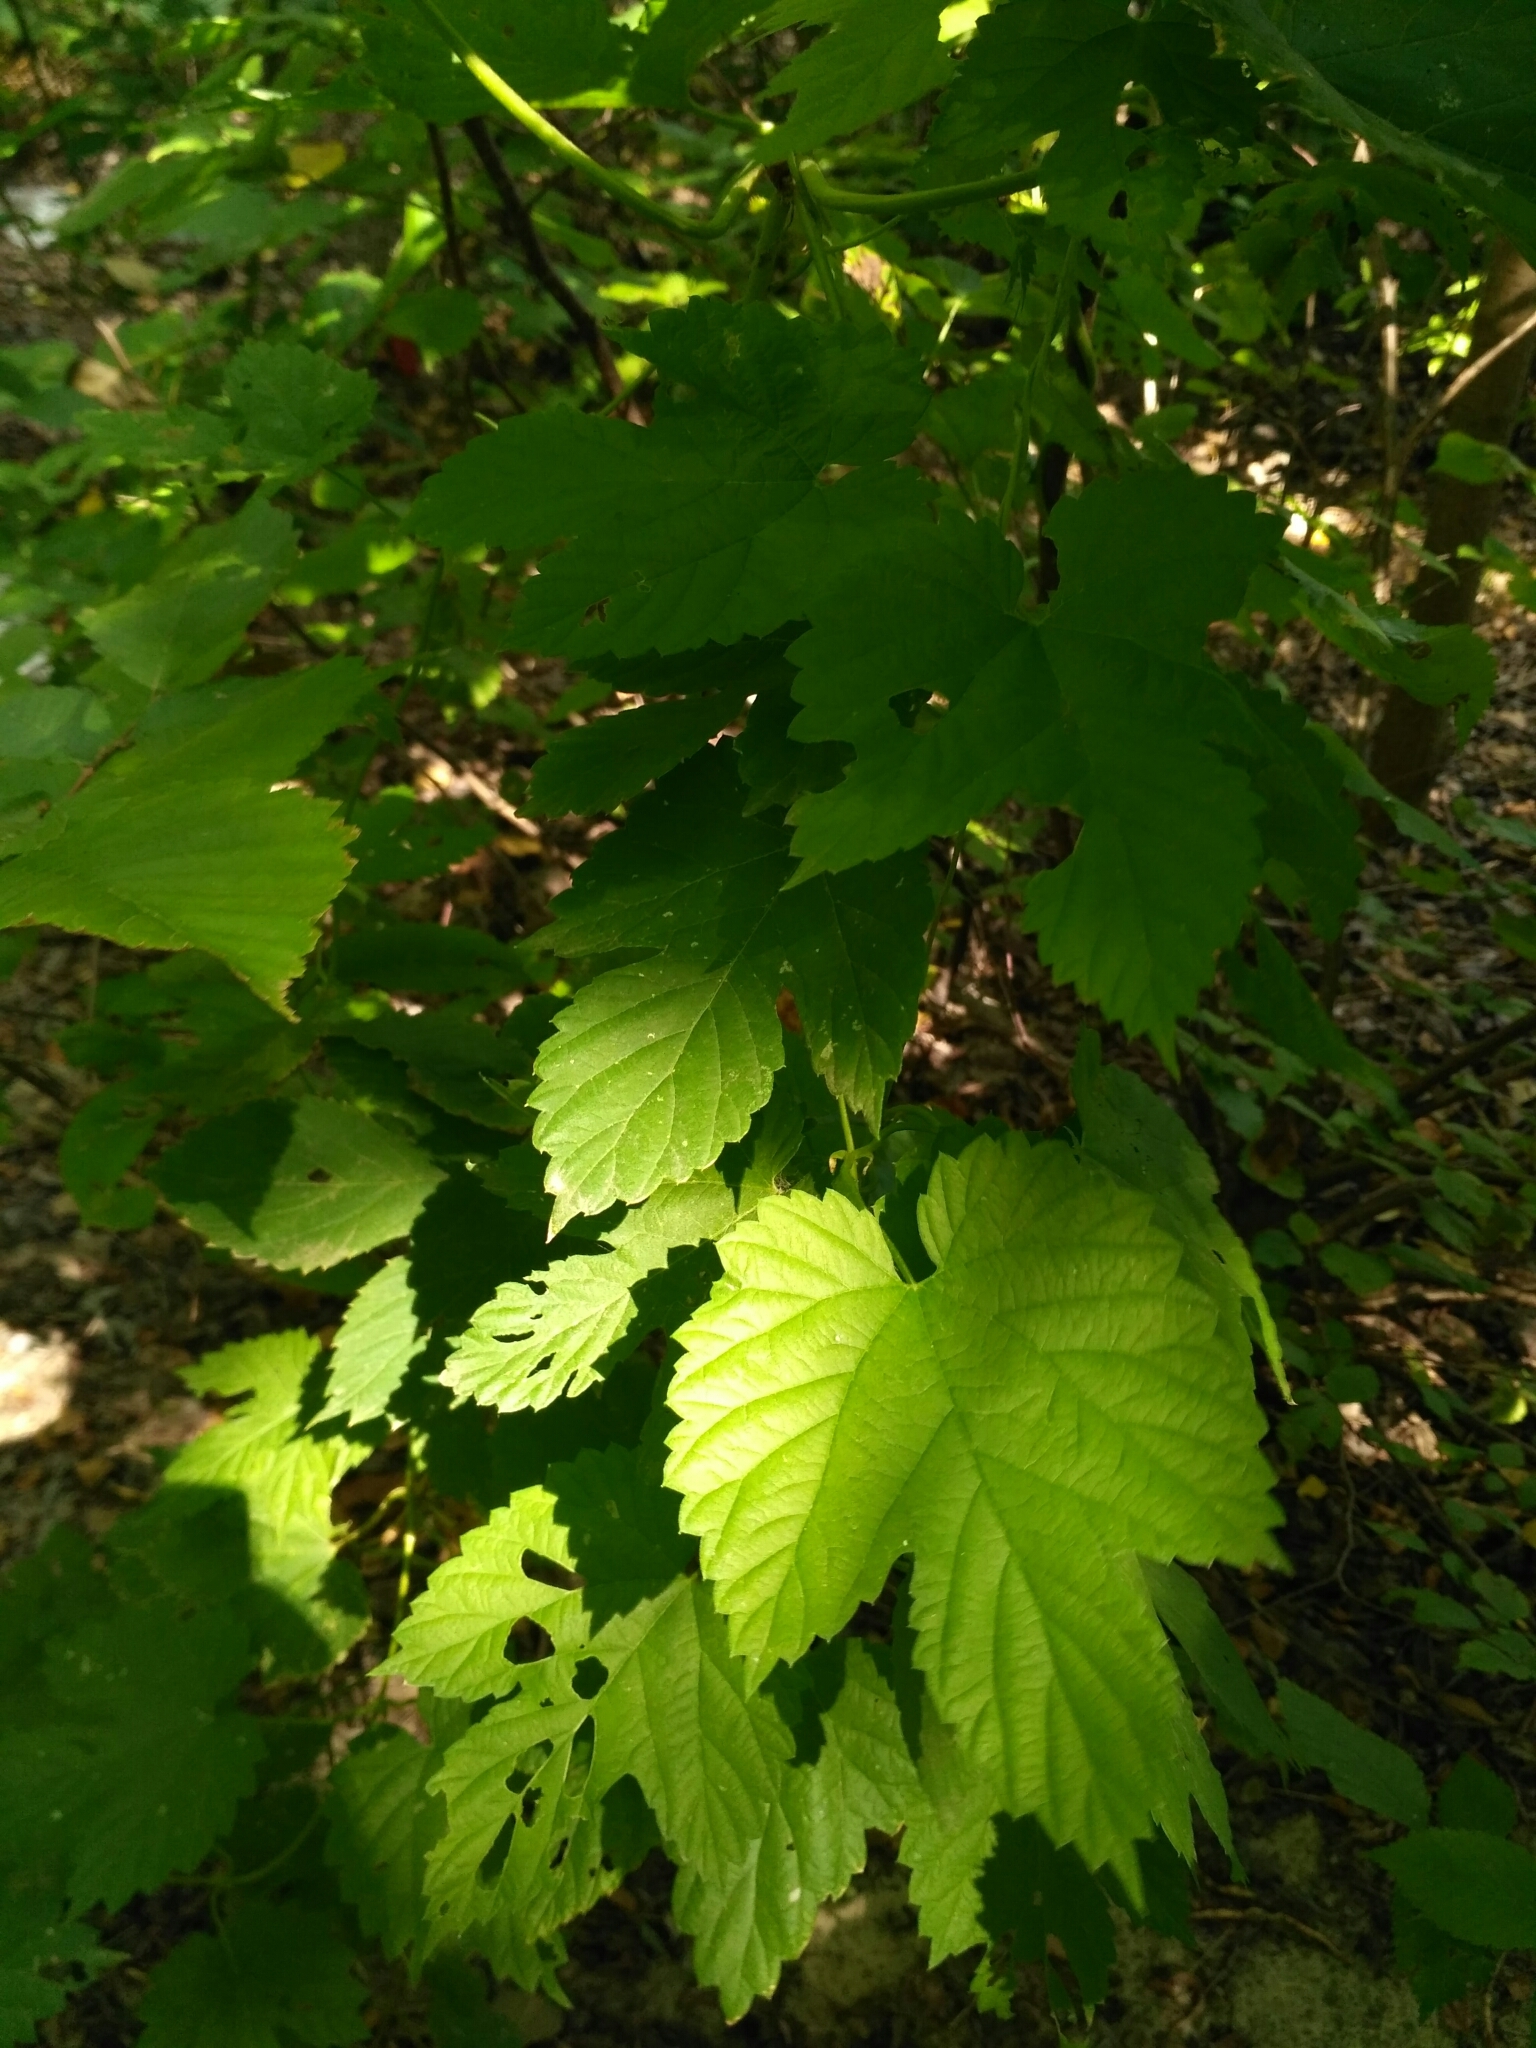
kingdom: Plantae
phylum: Tracheophyta
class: Magnoliopsida
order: Rosales
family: Cannabaceae
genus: Humulus
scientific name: Humulus lupulus
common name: Hop
